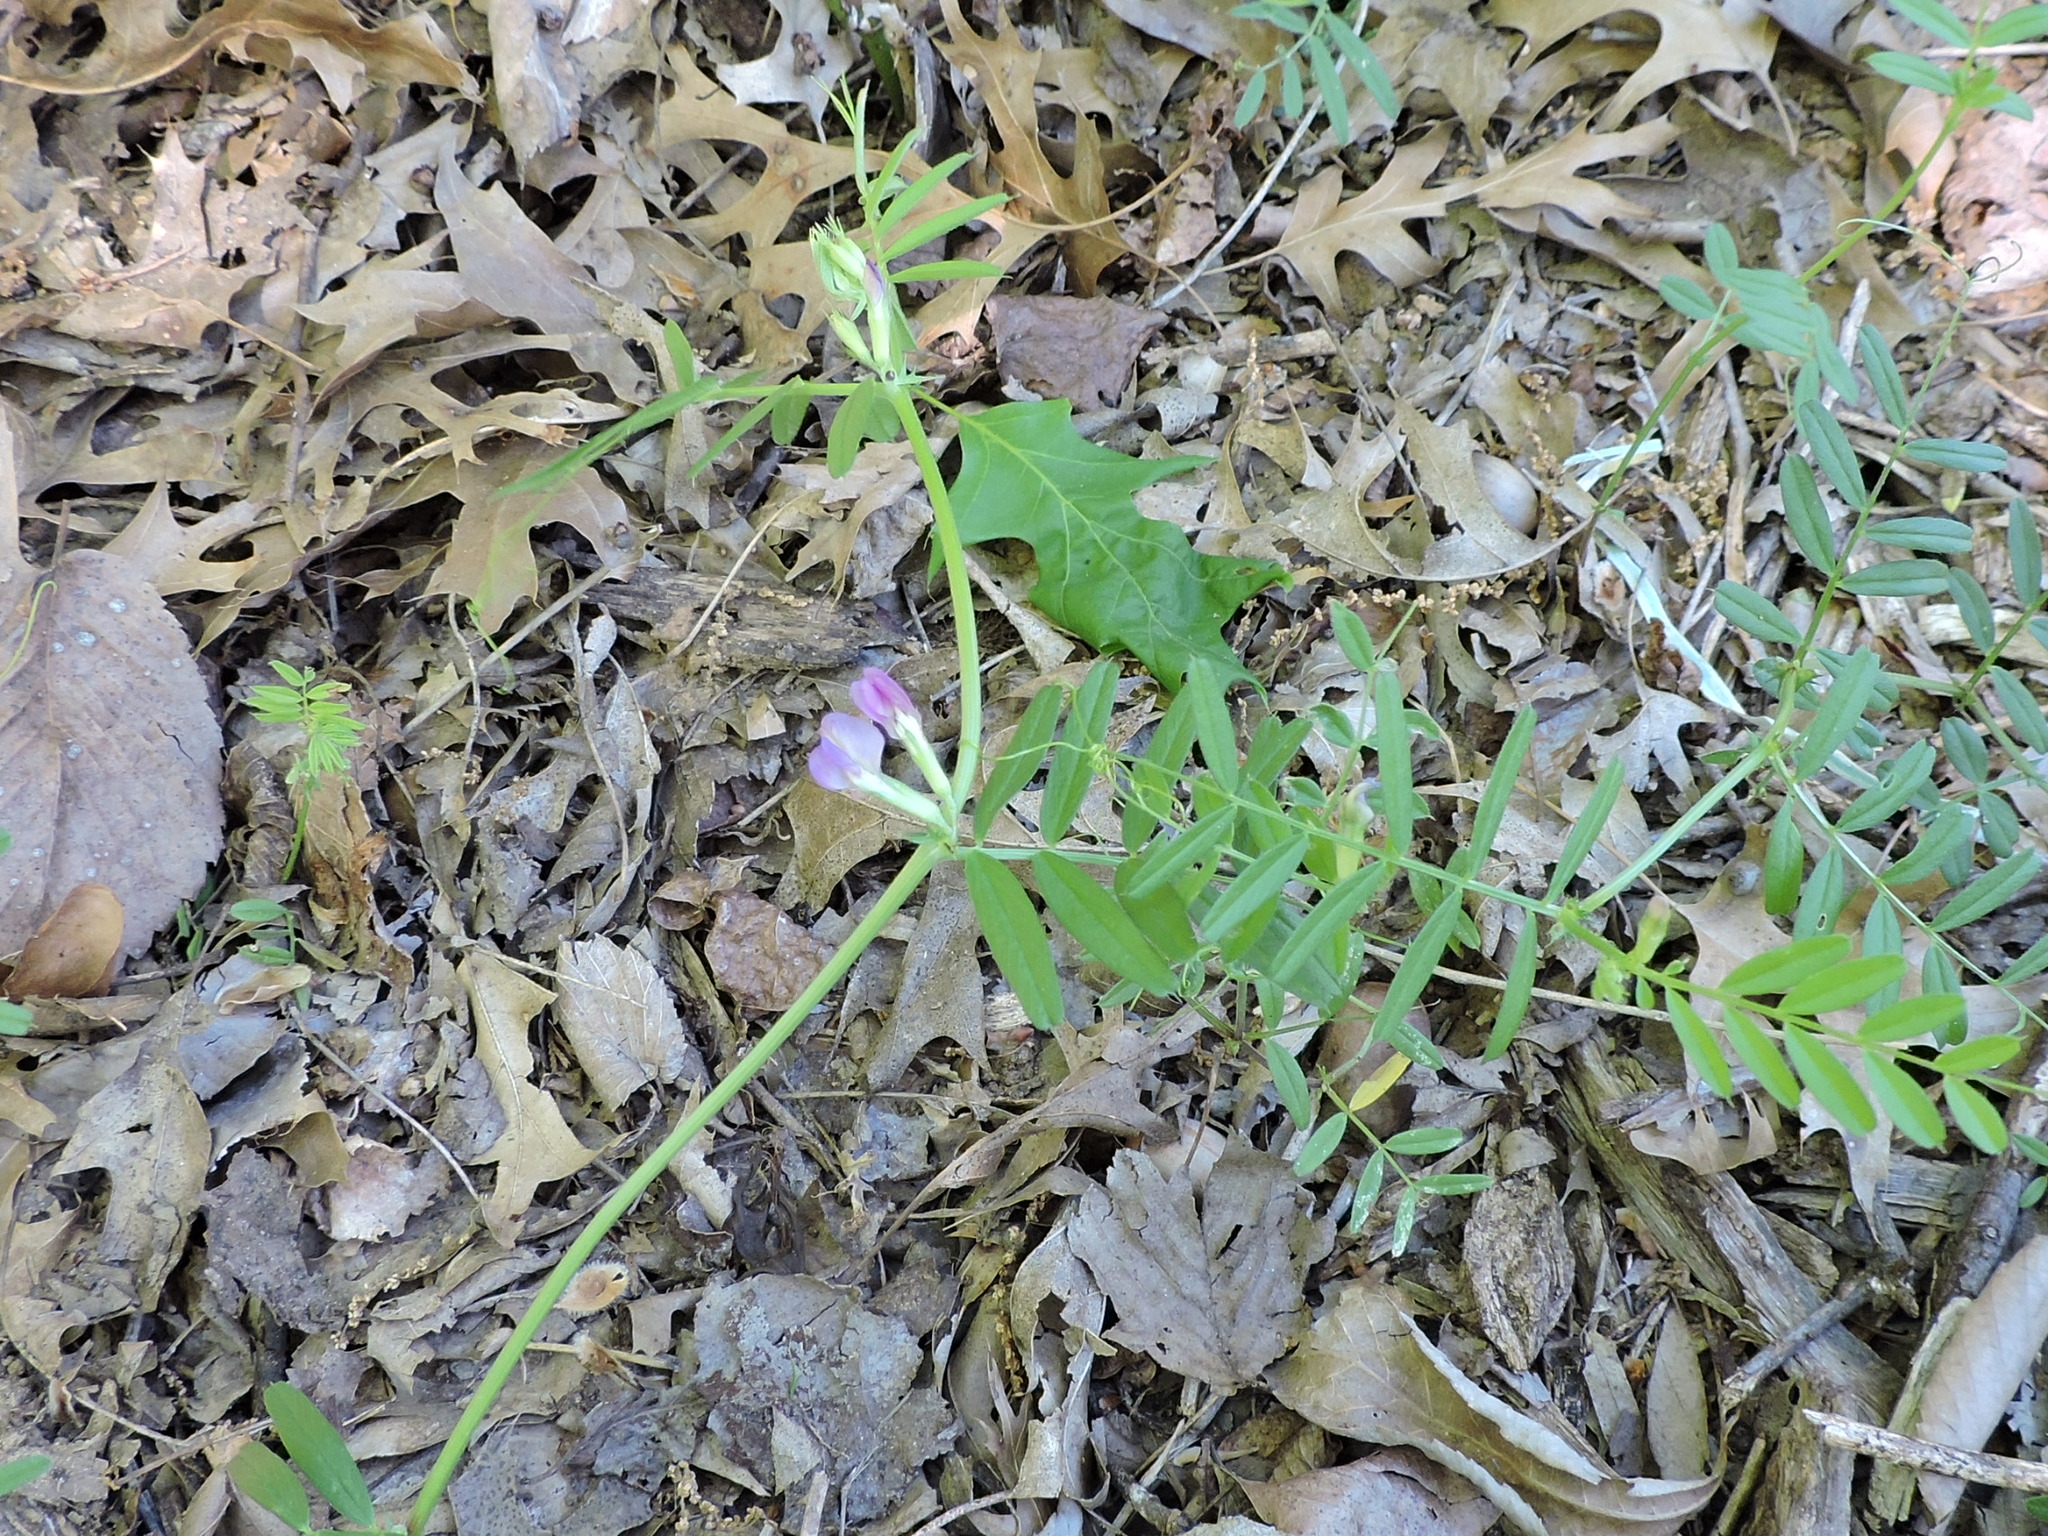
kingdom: Plantae
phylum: Tracheophyta
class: Magnoliopsida
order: Fabales
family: Fabaceae
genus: Vicia
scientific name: Vicia sativa
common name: Garden vetch
